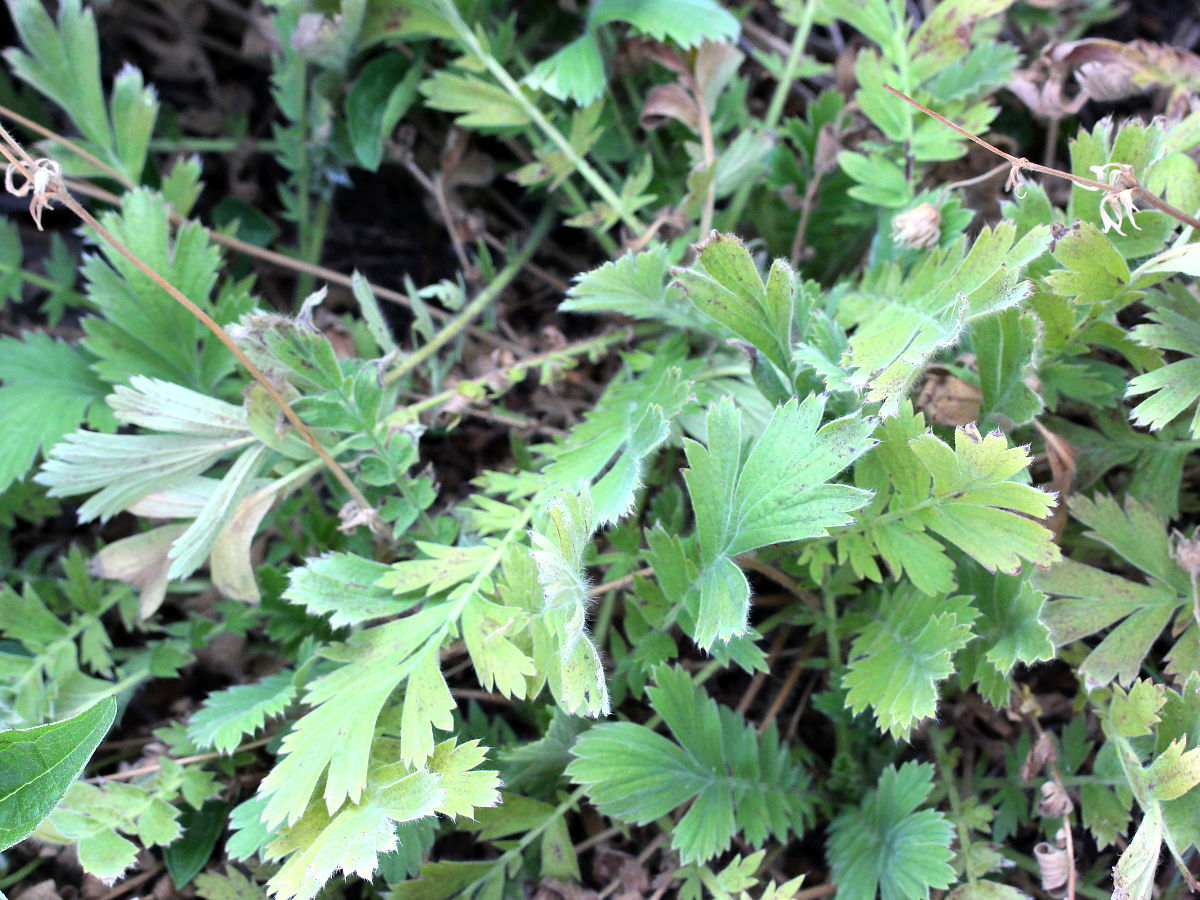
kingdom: Plantae
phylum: Tracheophyta
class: Magnoliopsida
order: Rosales
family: Rosaceae
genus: Geum
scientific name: Geum triflorum
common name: Old man's whiskers
